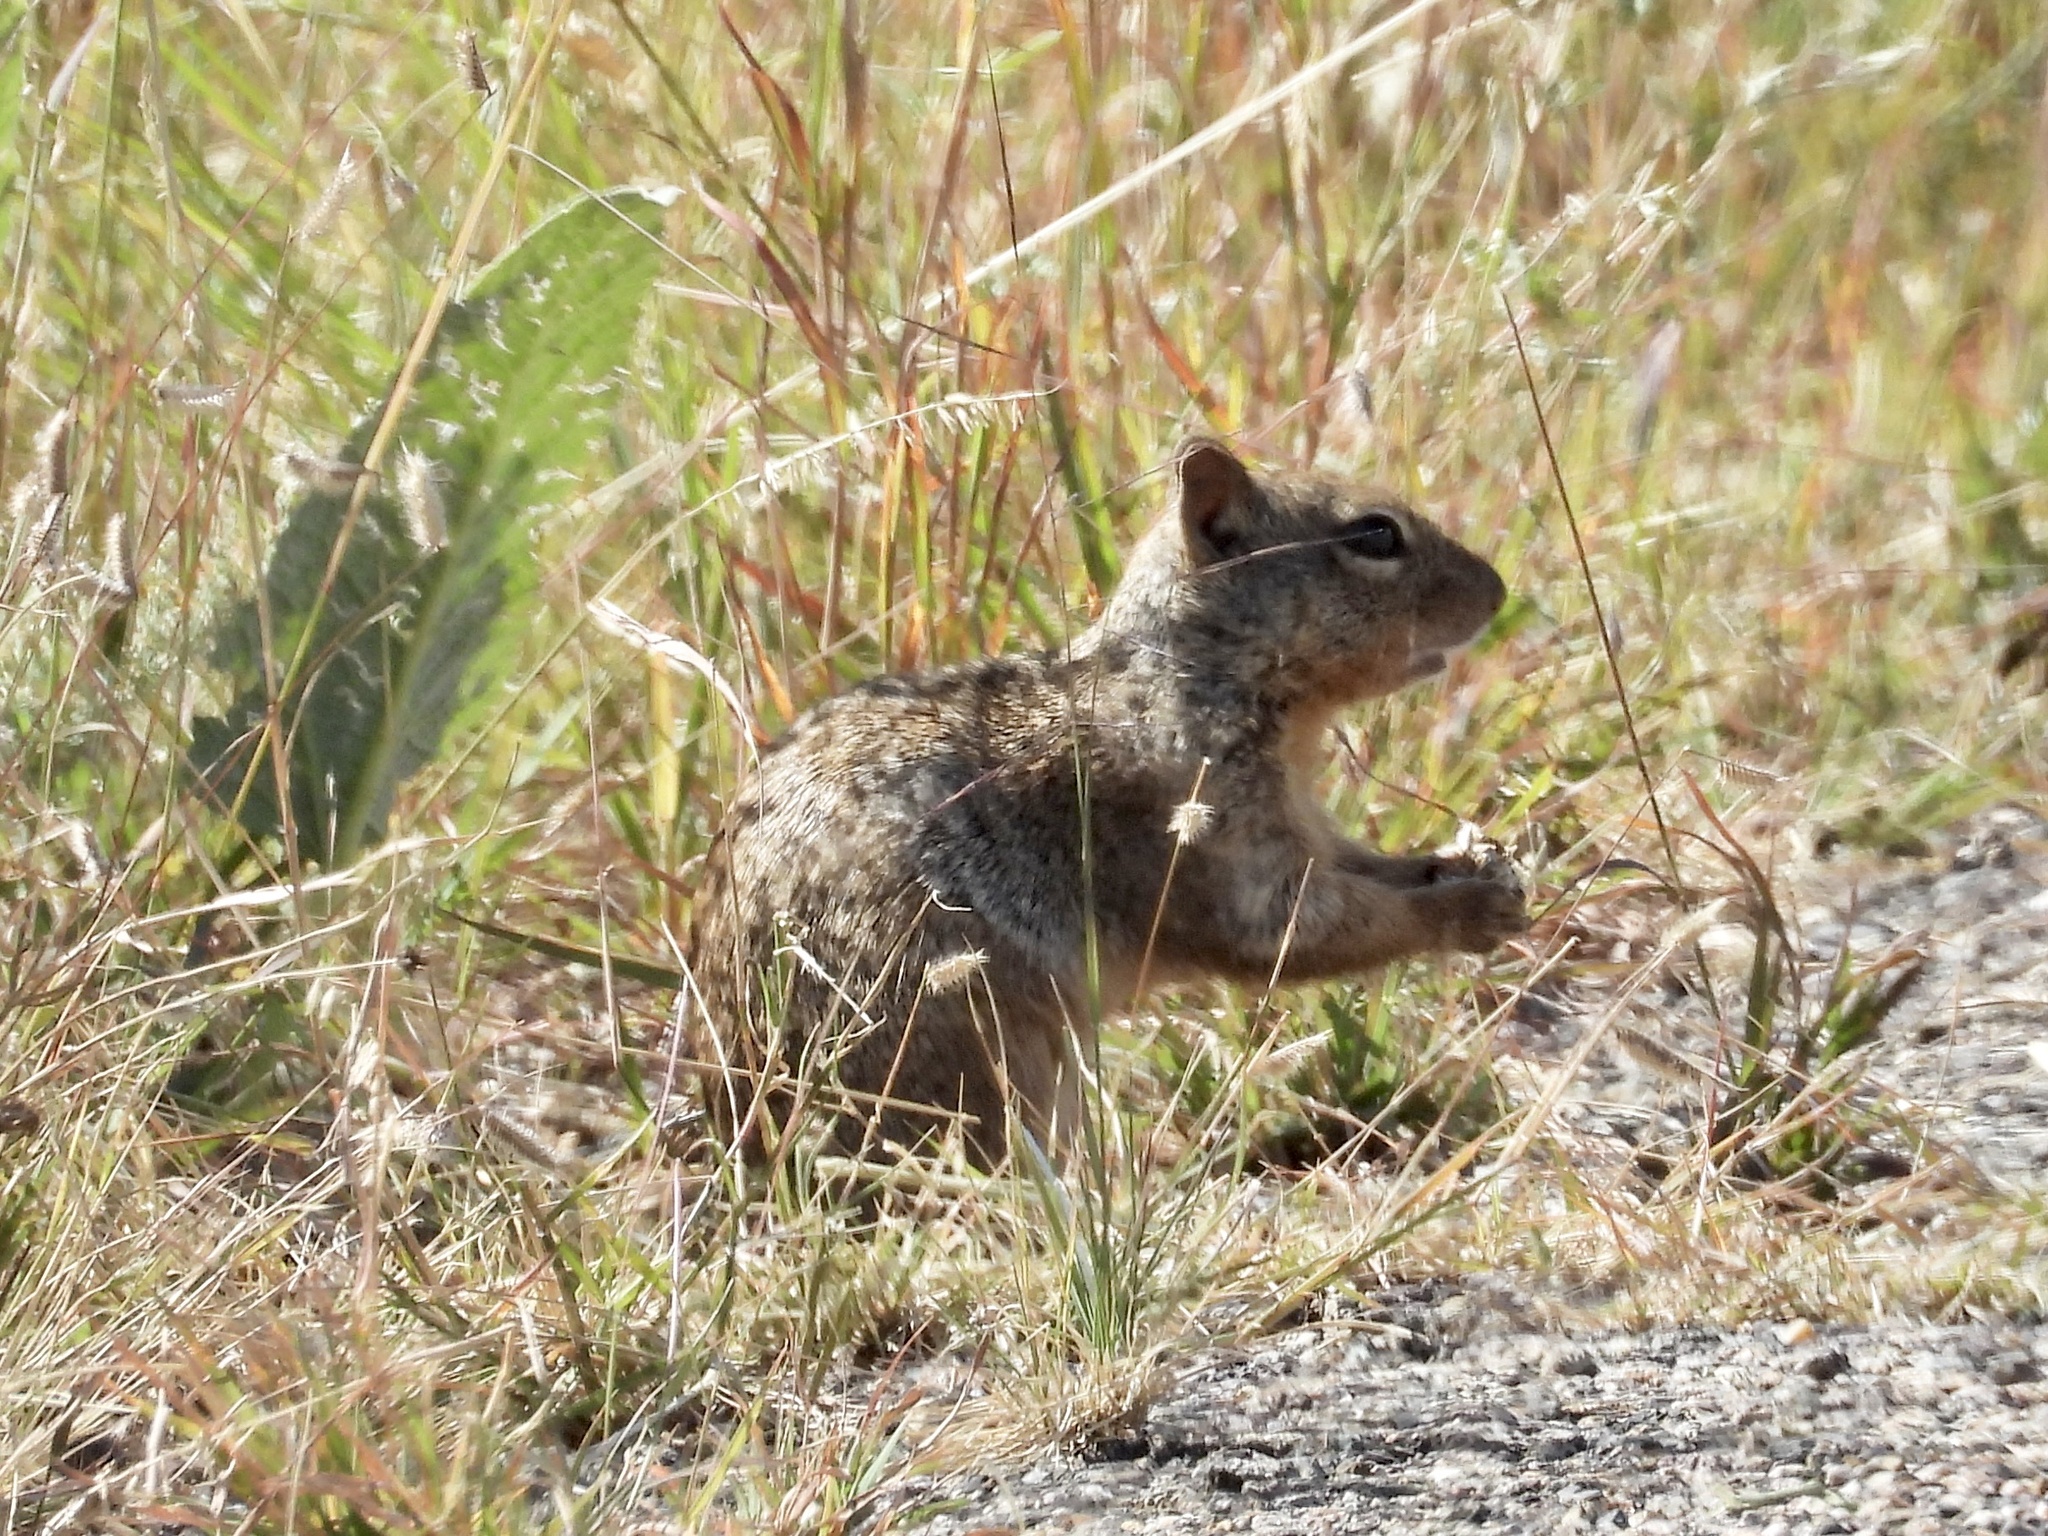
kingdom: Animalia
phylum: Chordata
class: Mammalia
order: Rodentia
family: Sciuridae
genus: Otospermophilus
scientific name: Otospermophilus variegatus
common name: Rock squirrel
